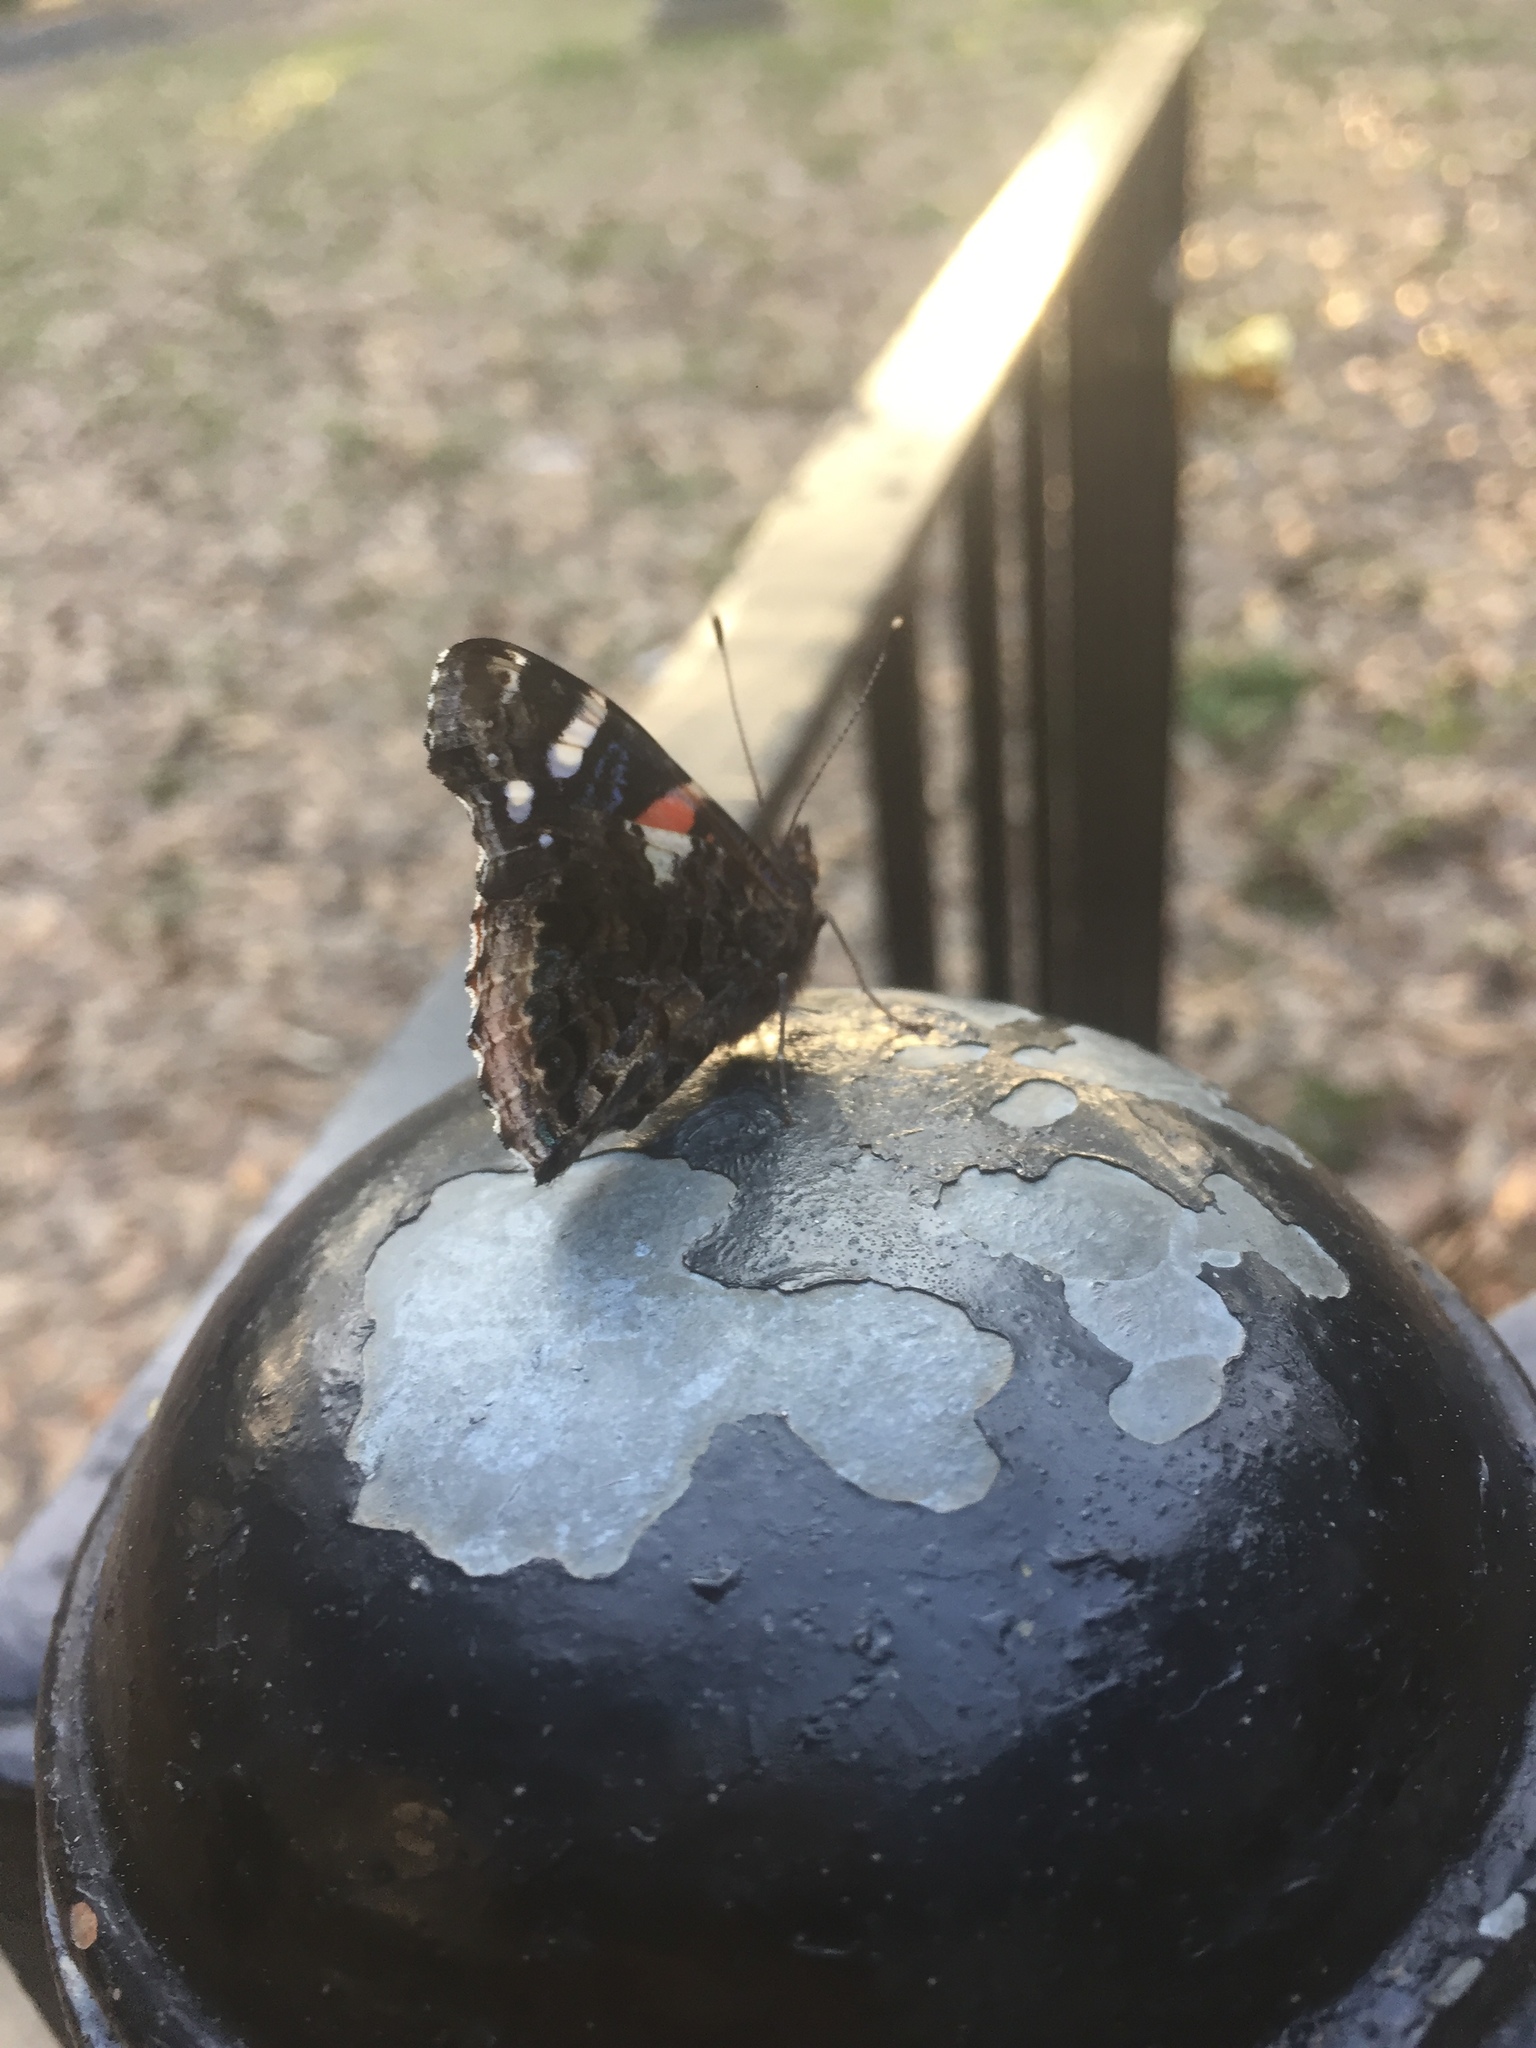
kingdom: Animalia
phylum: Arthropoda
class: Insecta
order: Lepidoptera
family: Nymphalidae
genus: Vanessa
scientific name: Vanessa atalanta
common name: Red admiral
